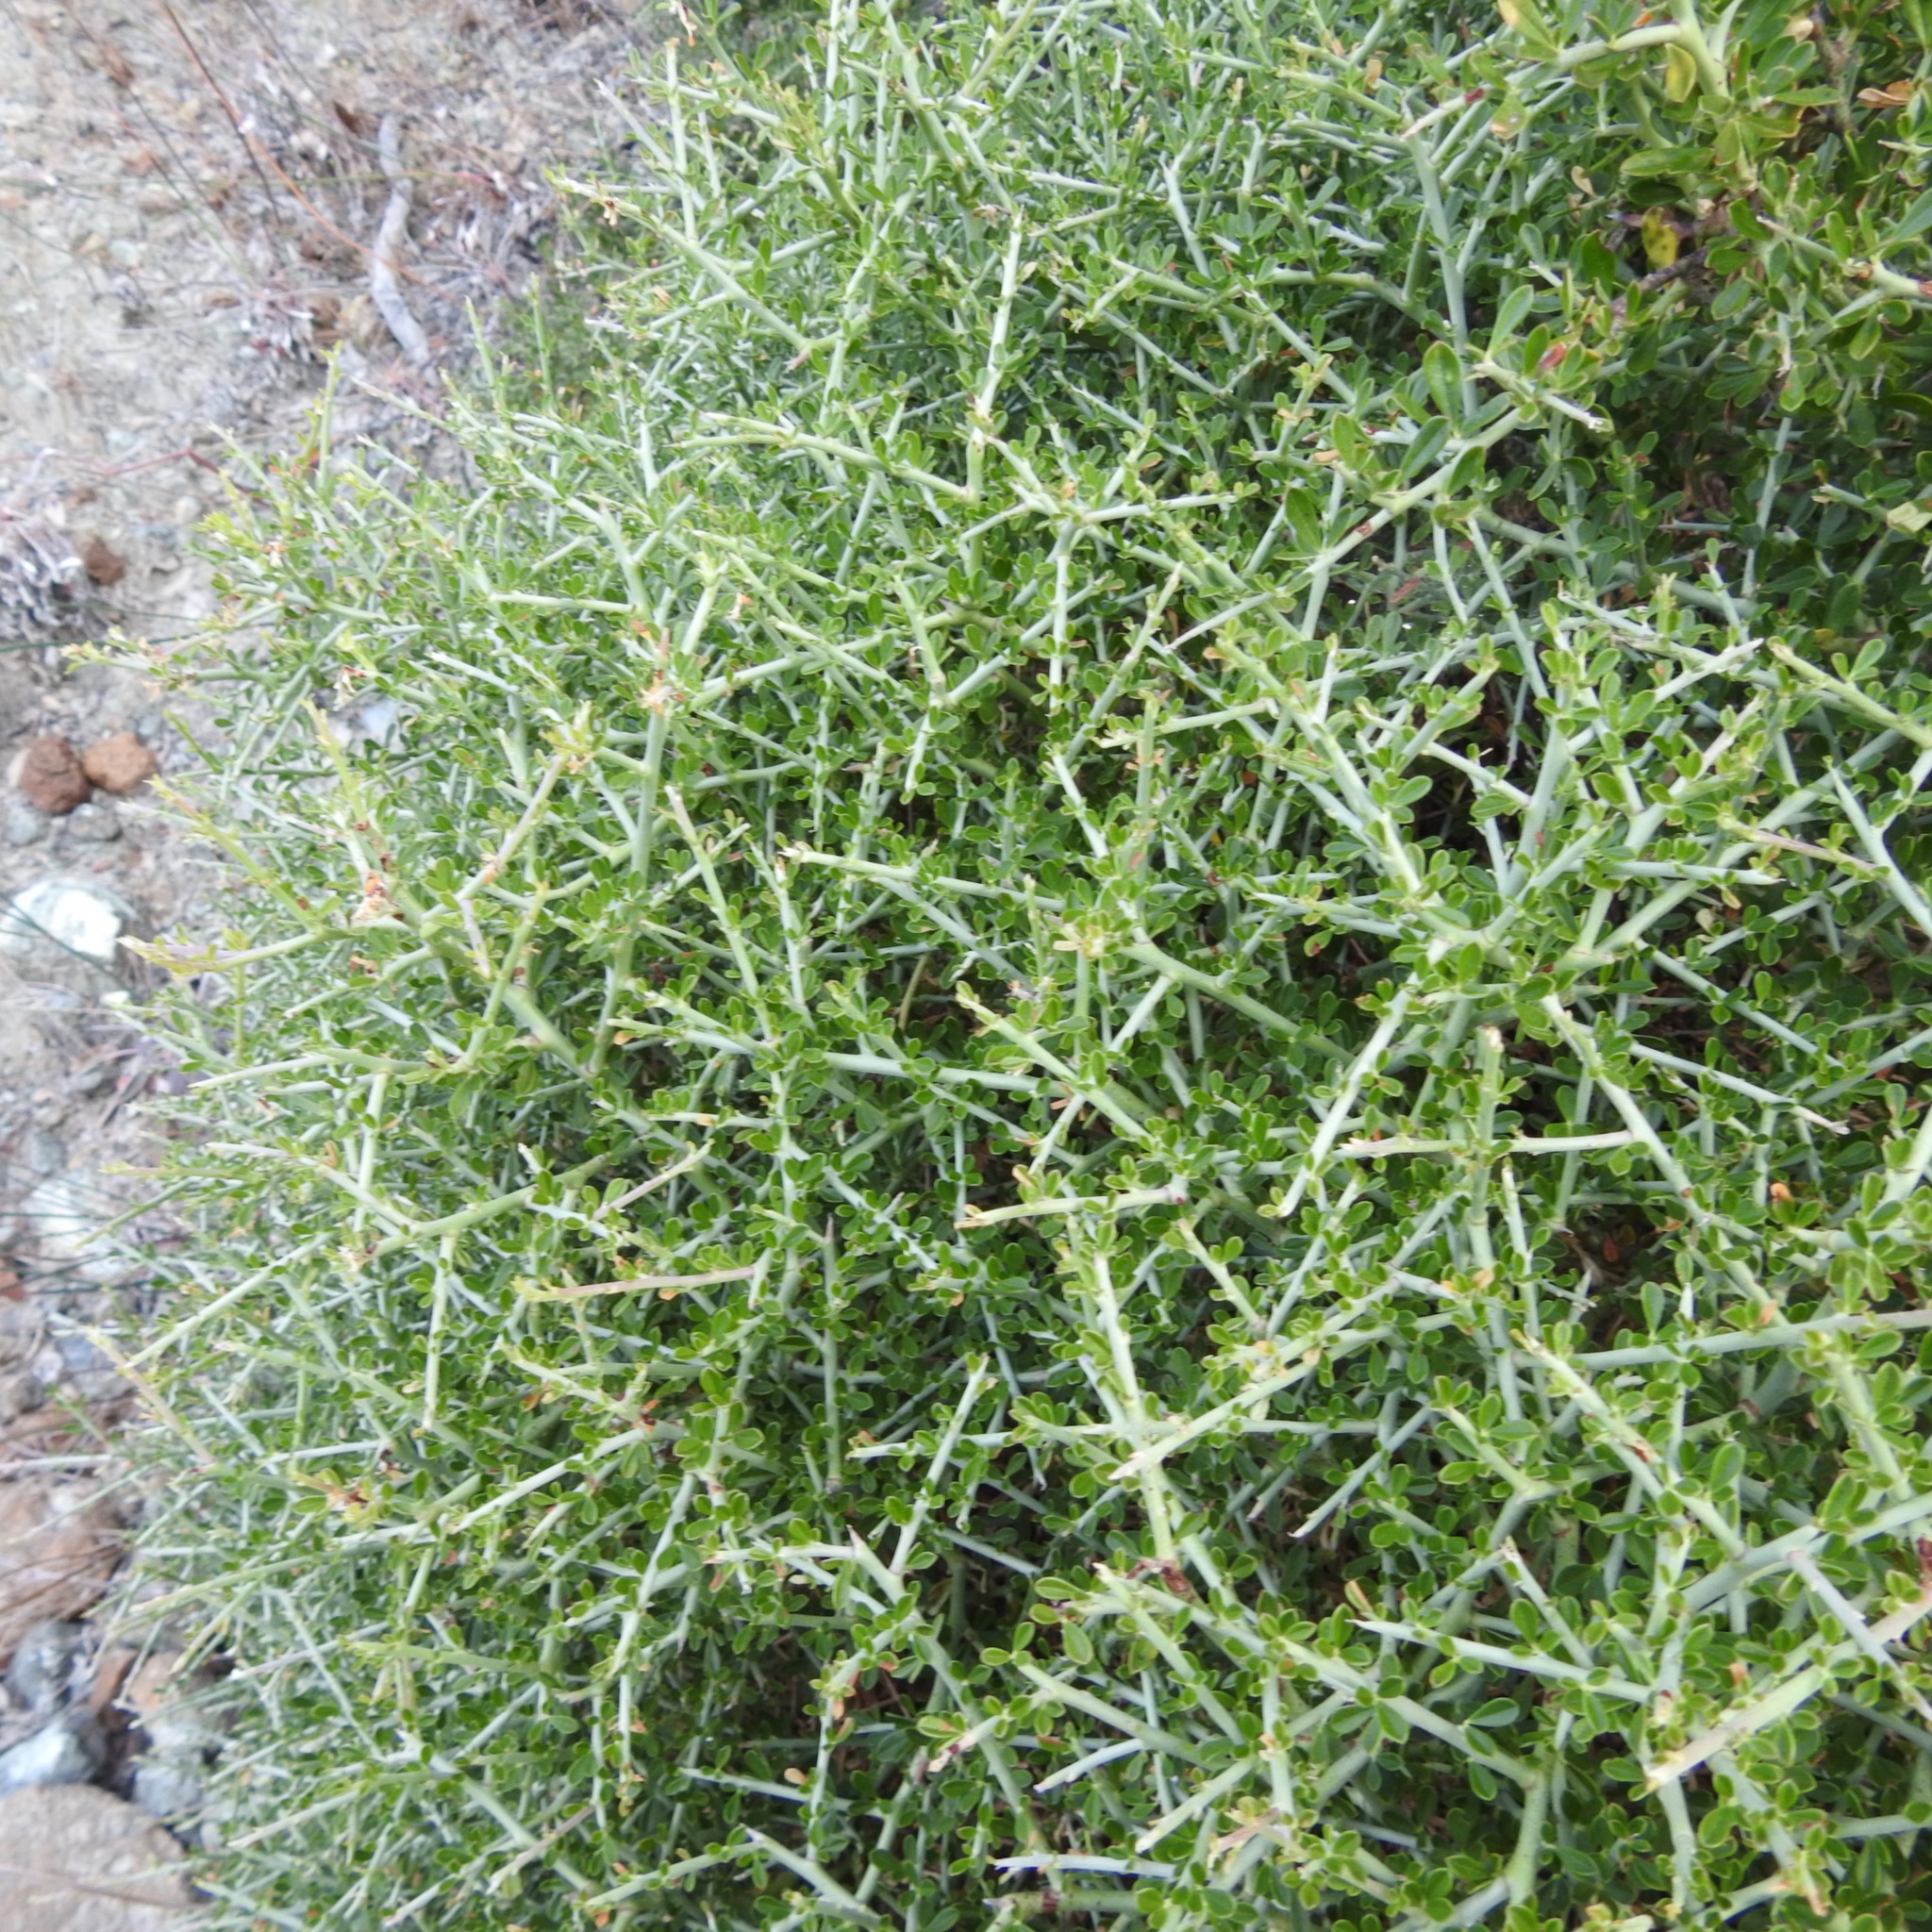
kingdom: Plantae
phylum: Tracheophyta
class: Magnoliopsida
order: Fabales
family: Fabaceae
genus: Pickeringia
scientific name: Pickeringia montana
